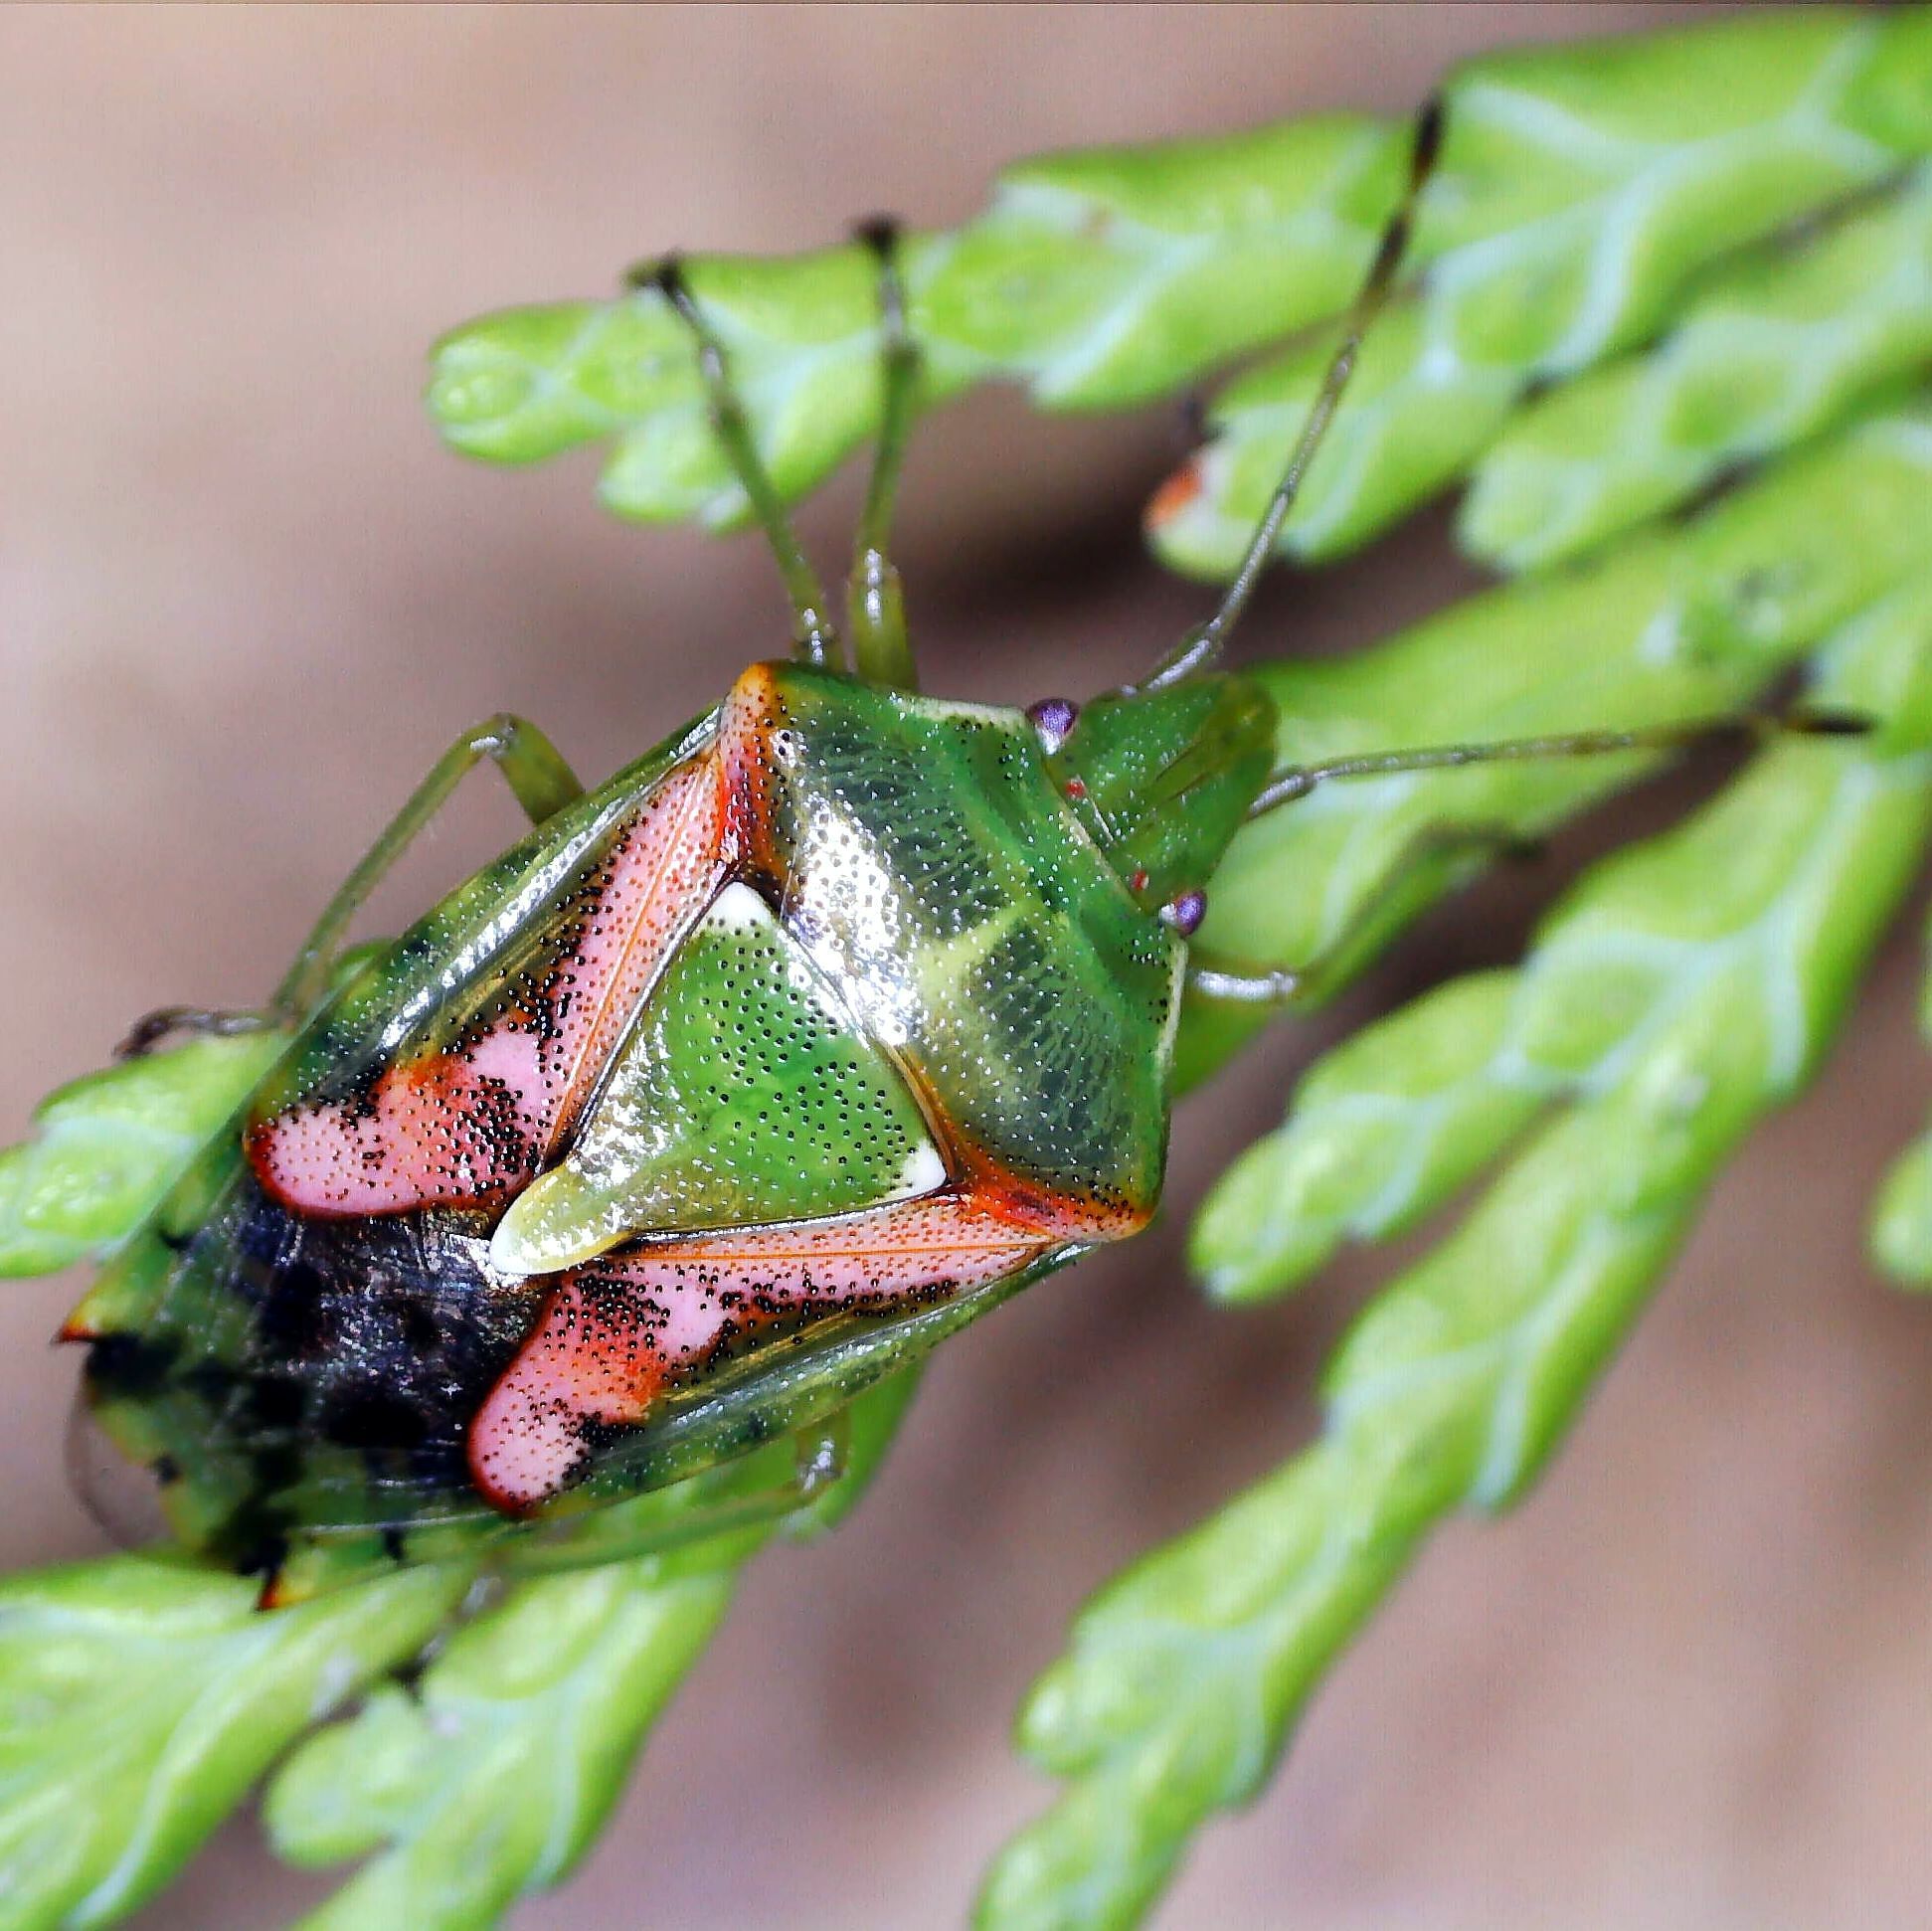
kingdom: Animalia
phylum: Arthropoda
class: Insecta
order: Hemiptera
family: Acanthosomatidae
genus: Cyphostethus
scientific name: Cyphostethus tristriatus
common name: Juniper shieldbug
